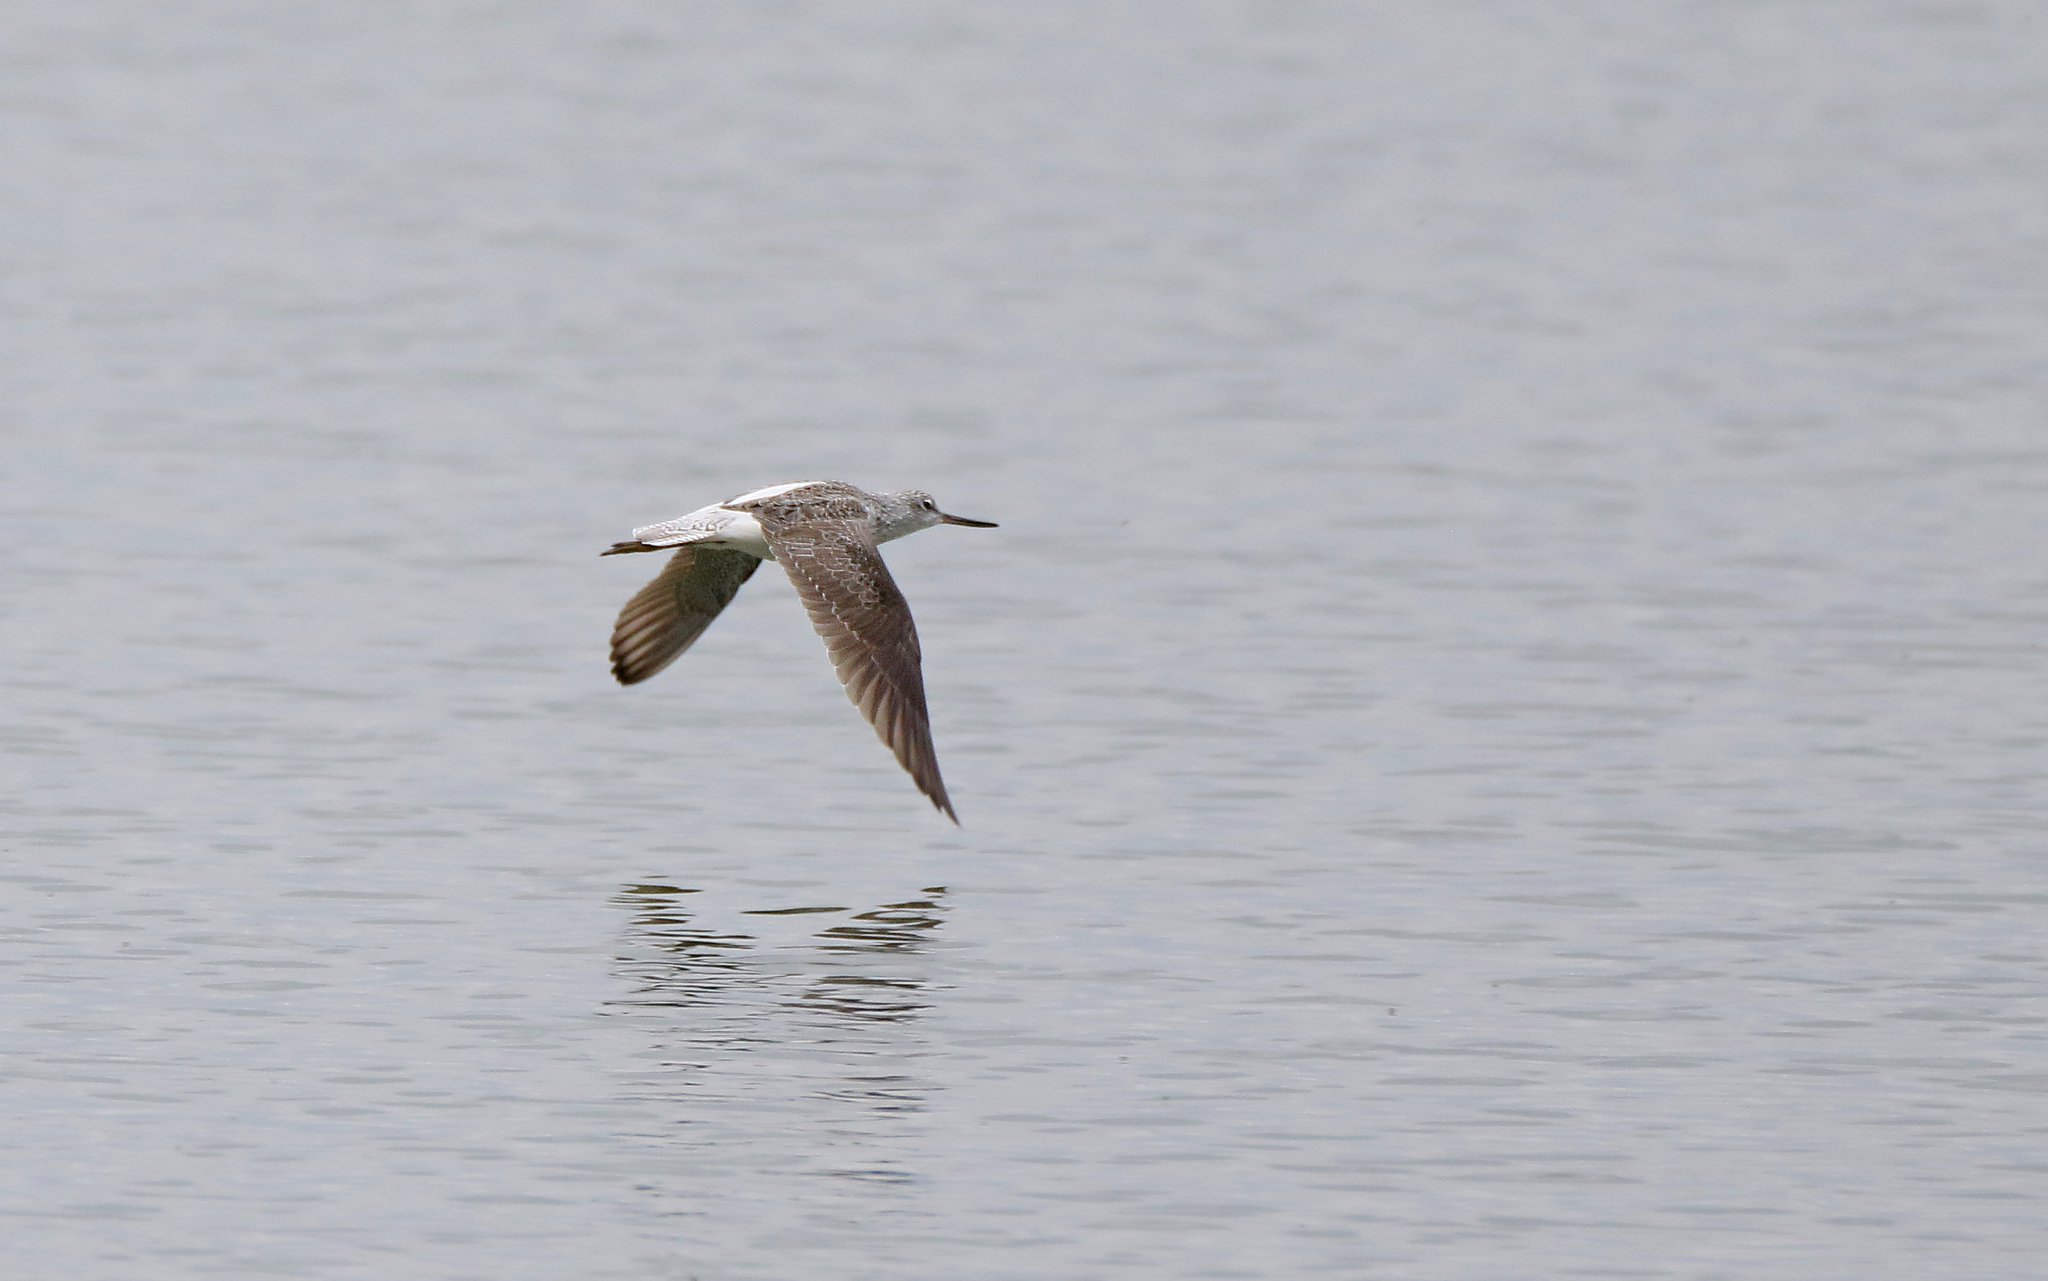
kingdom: Animalia
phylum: Chordata
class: Aves
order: Charadriiformes
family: Scolopacidae
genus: Tringa
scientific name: Tringa nebularia
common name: Common greenshank
